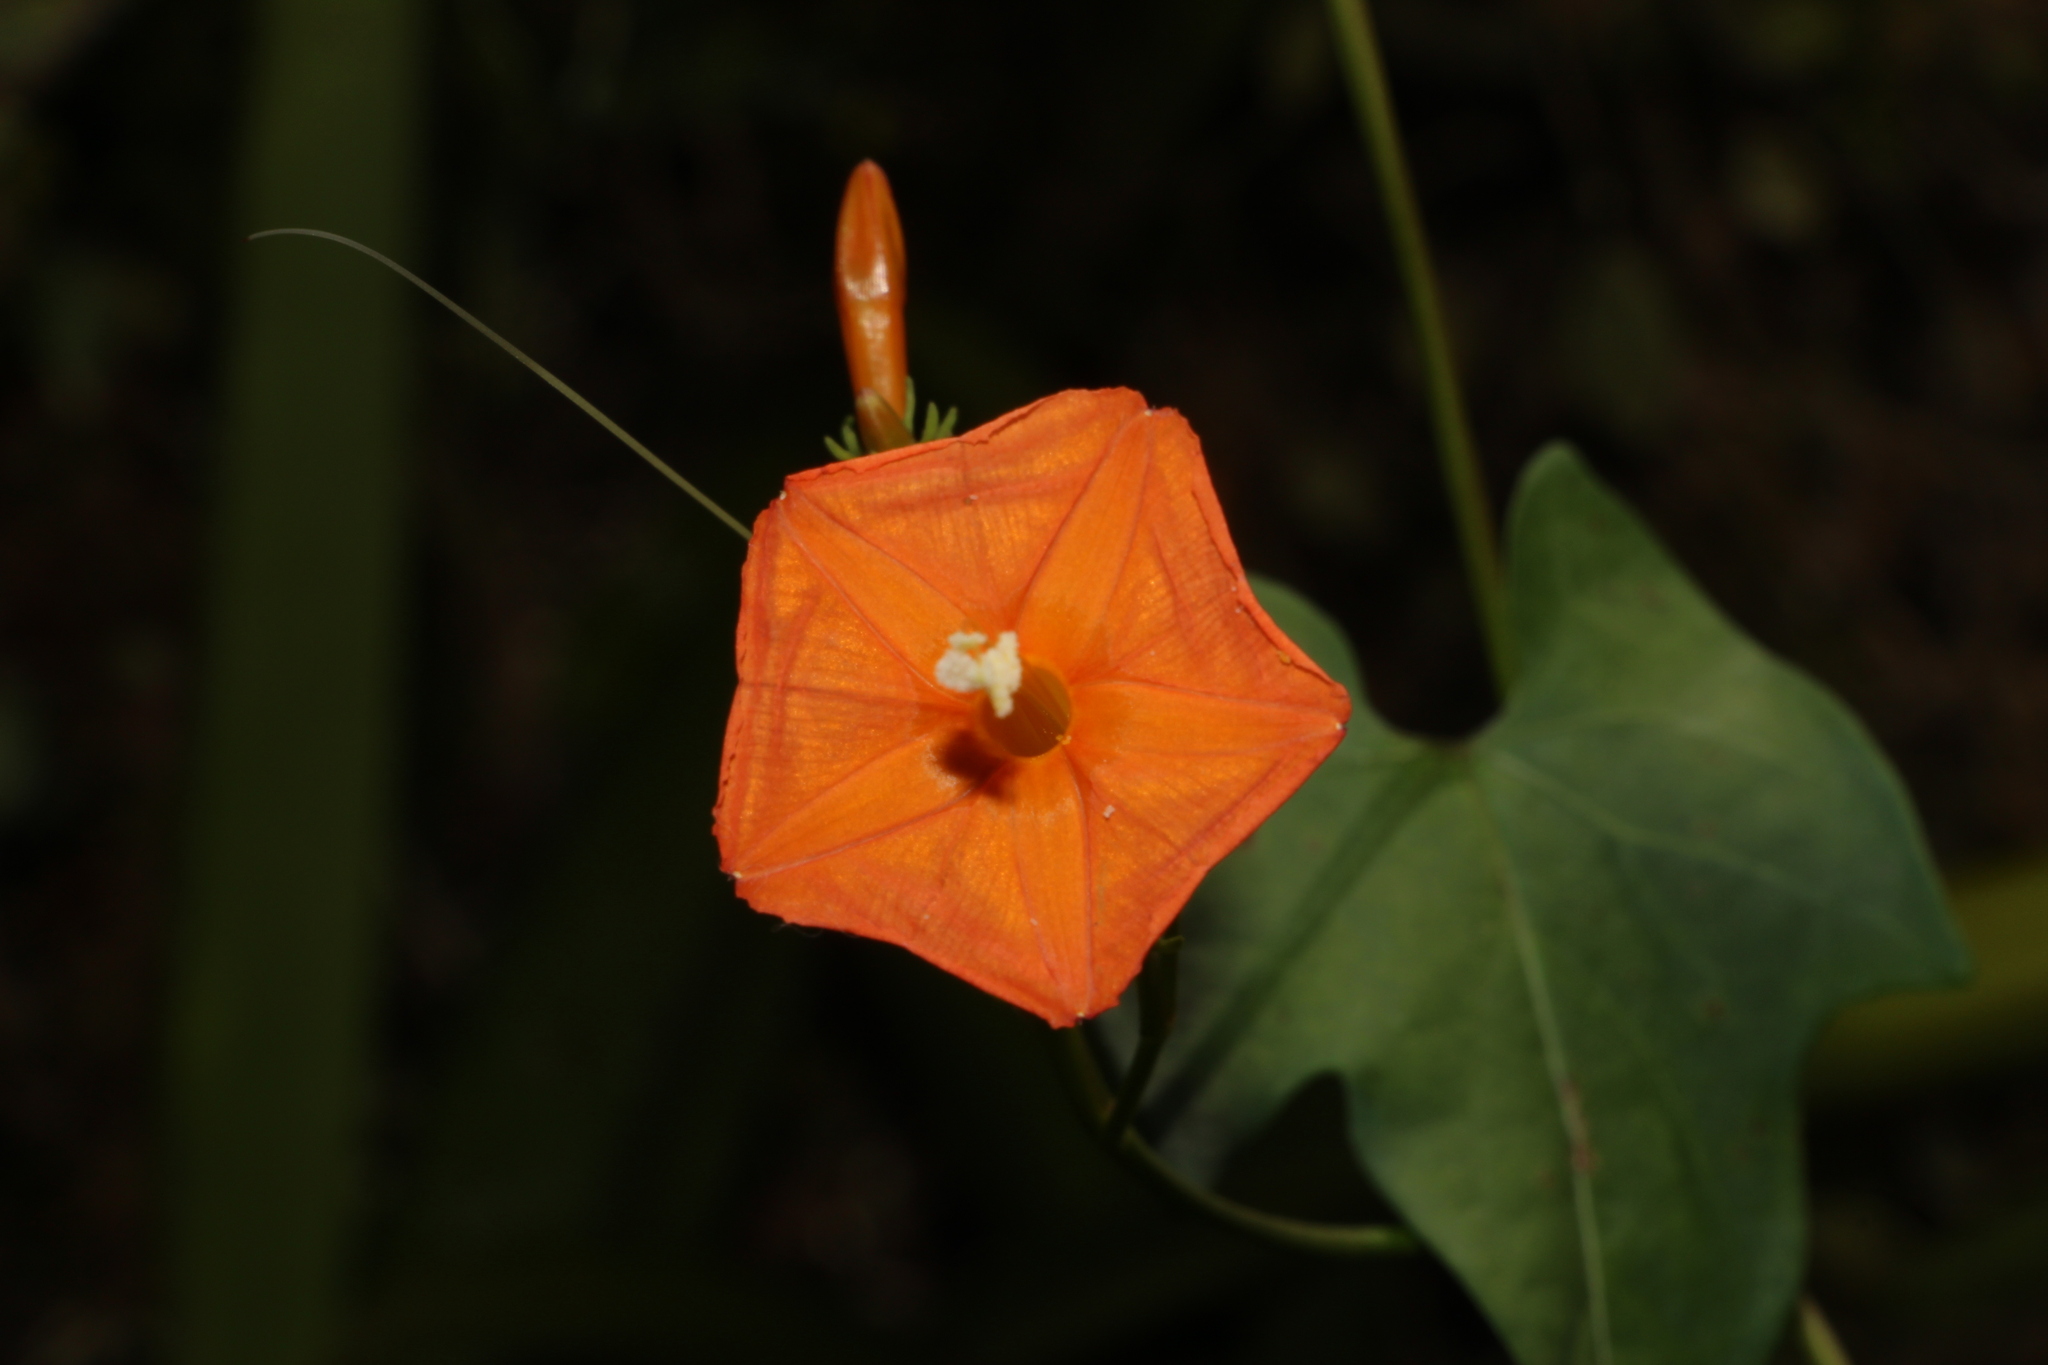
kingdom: Plantae
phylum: Tracheophyta
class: Magnoliopsida
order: Solanales
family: Convolvulaceae
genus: Ipomoea
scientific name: Ipomoea hederifolia
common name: Ivy-leaf morning-glory
